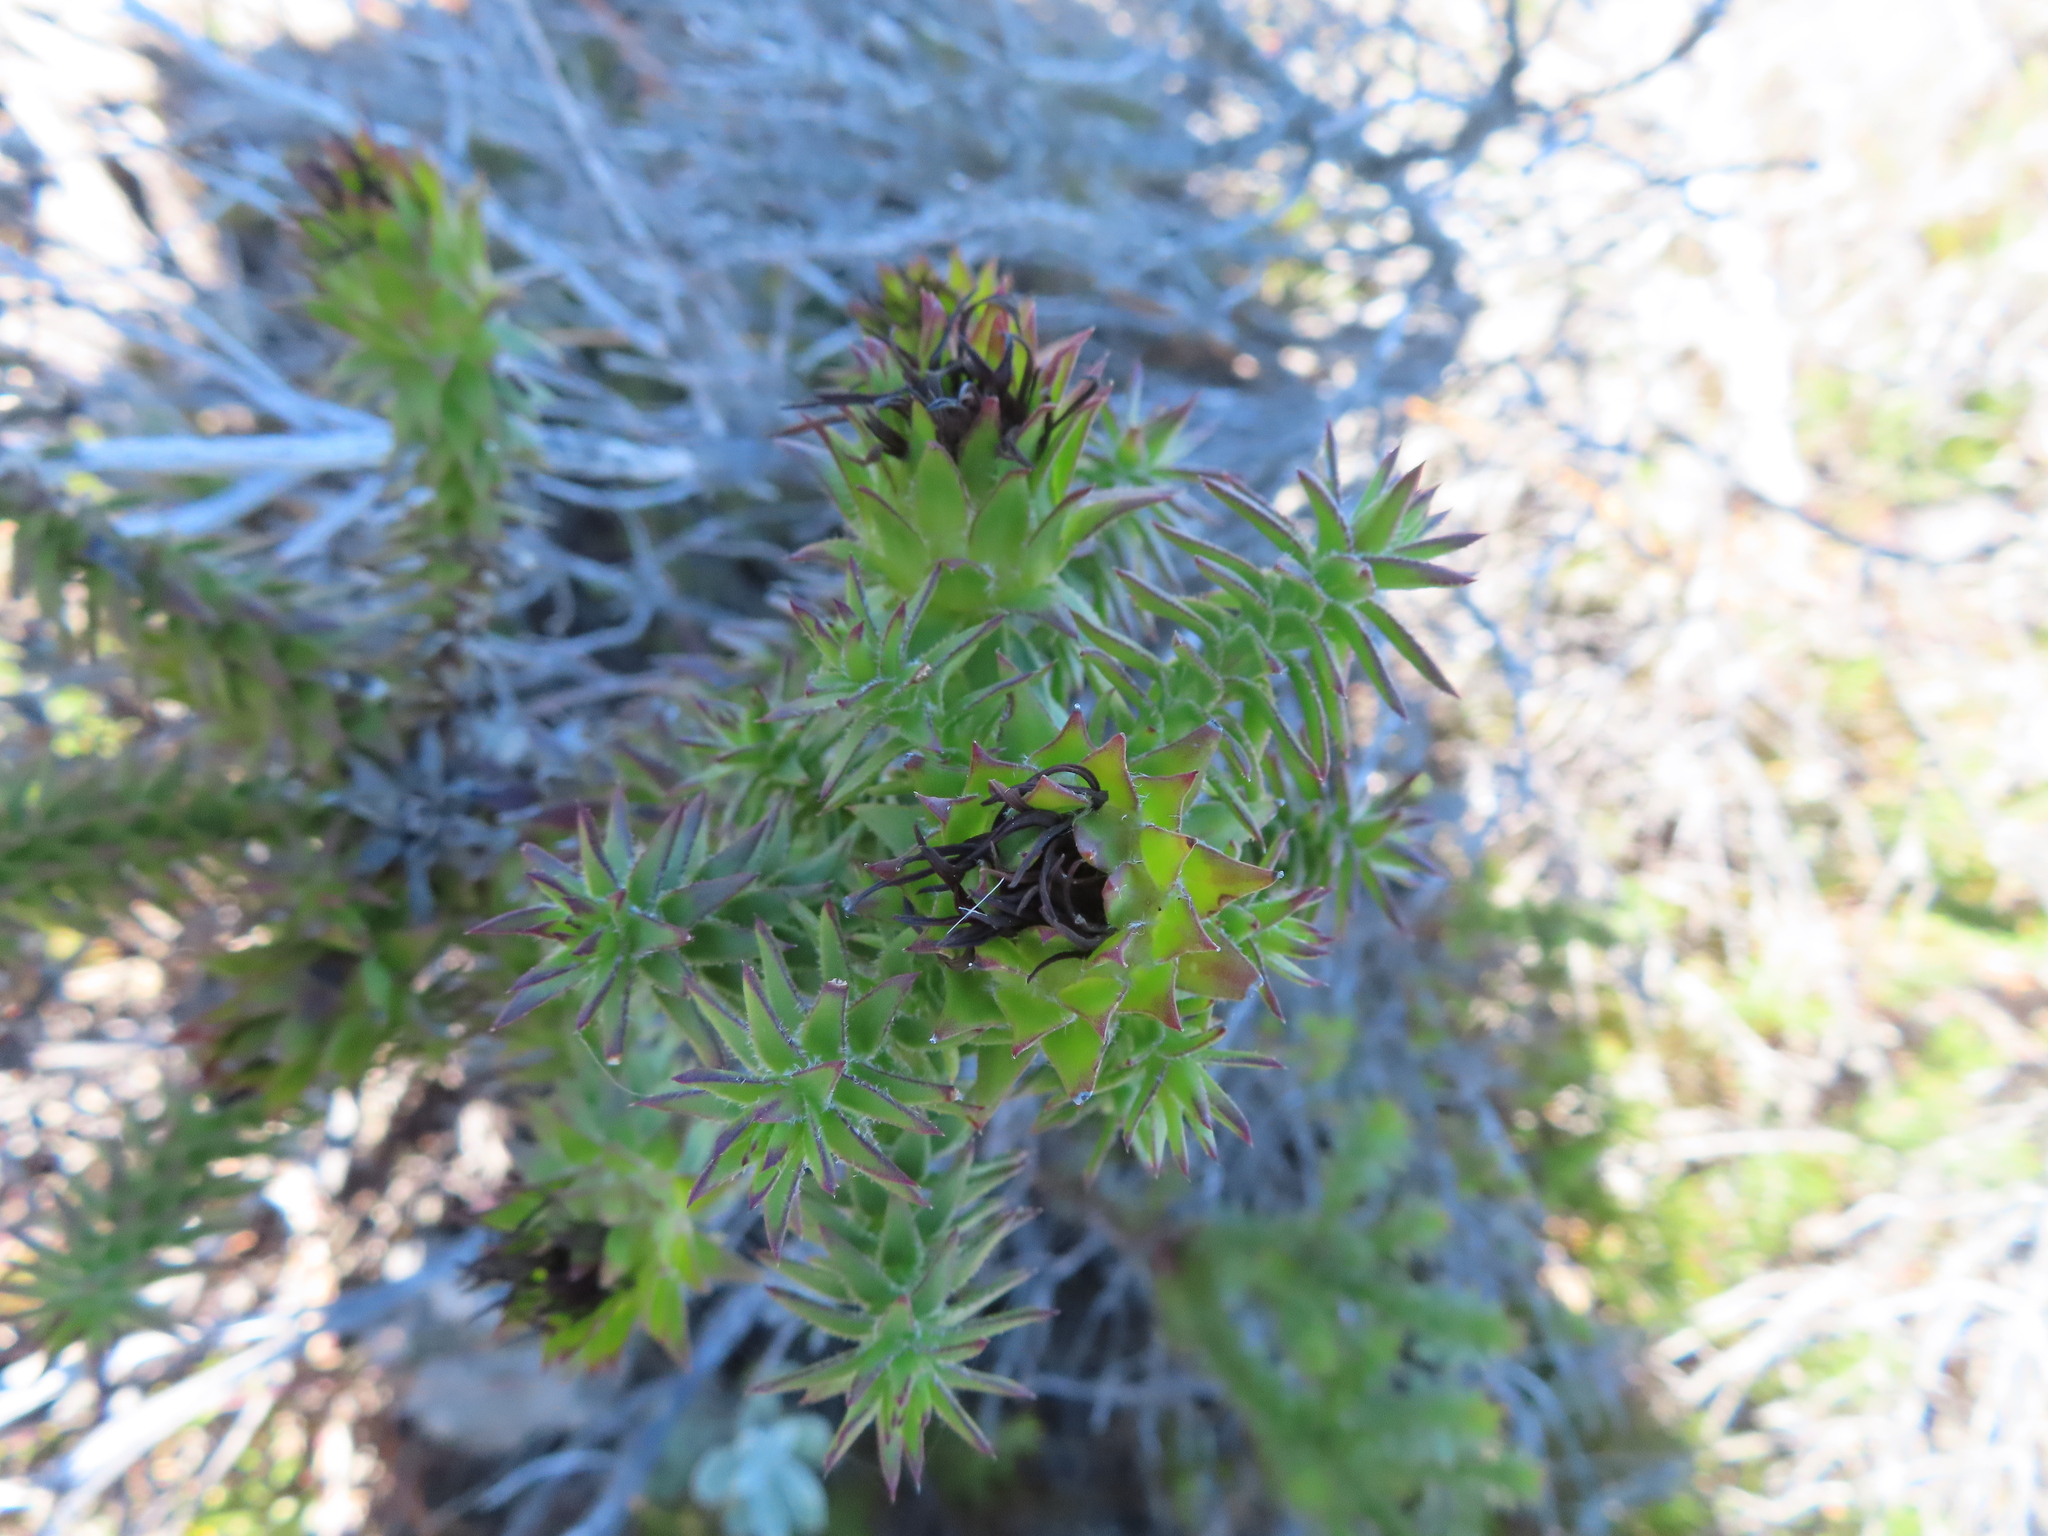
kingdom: Plantae
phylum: Tracheophyta
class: Magnoliopsida
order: Asterales
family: Asteraceae
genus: Oedera
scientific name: Oedera capensis
